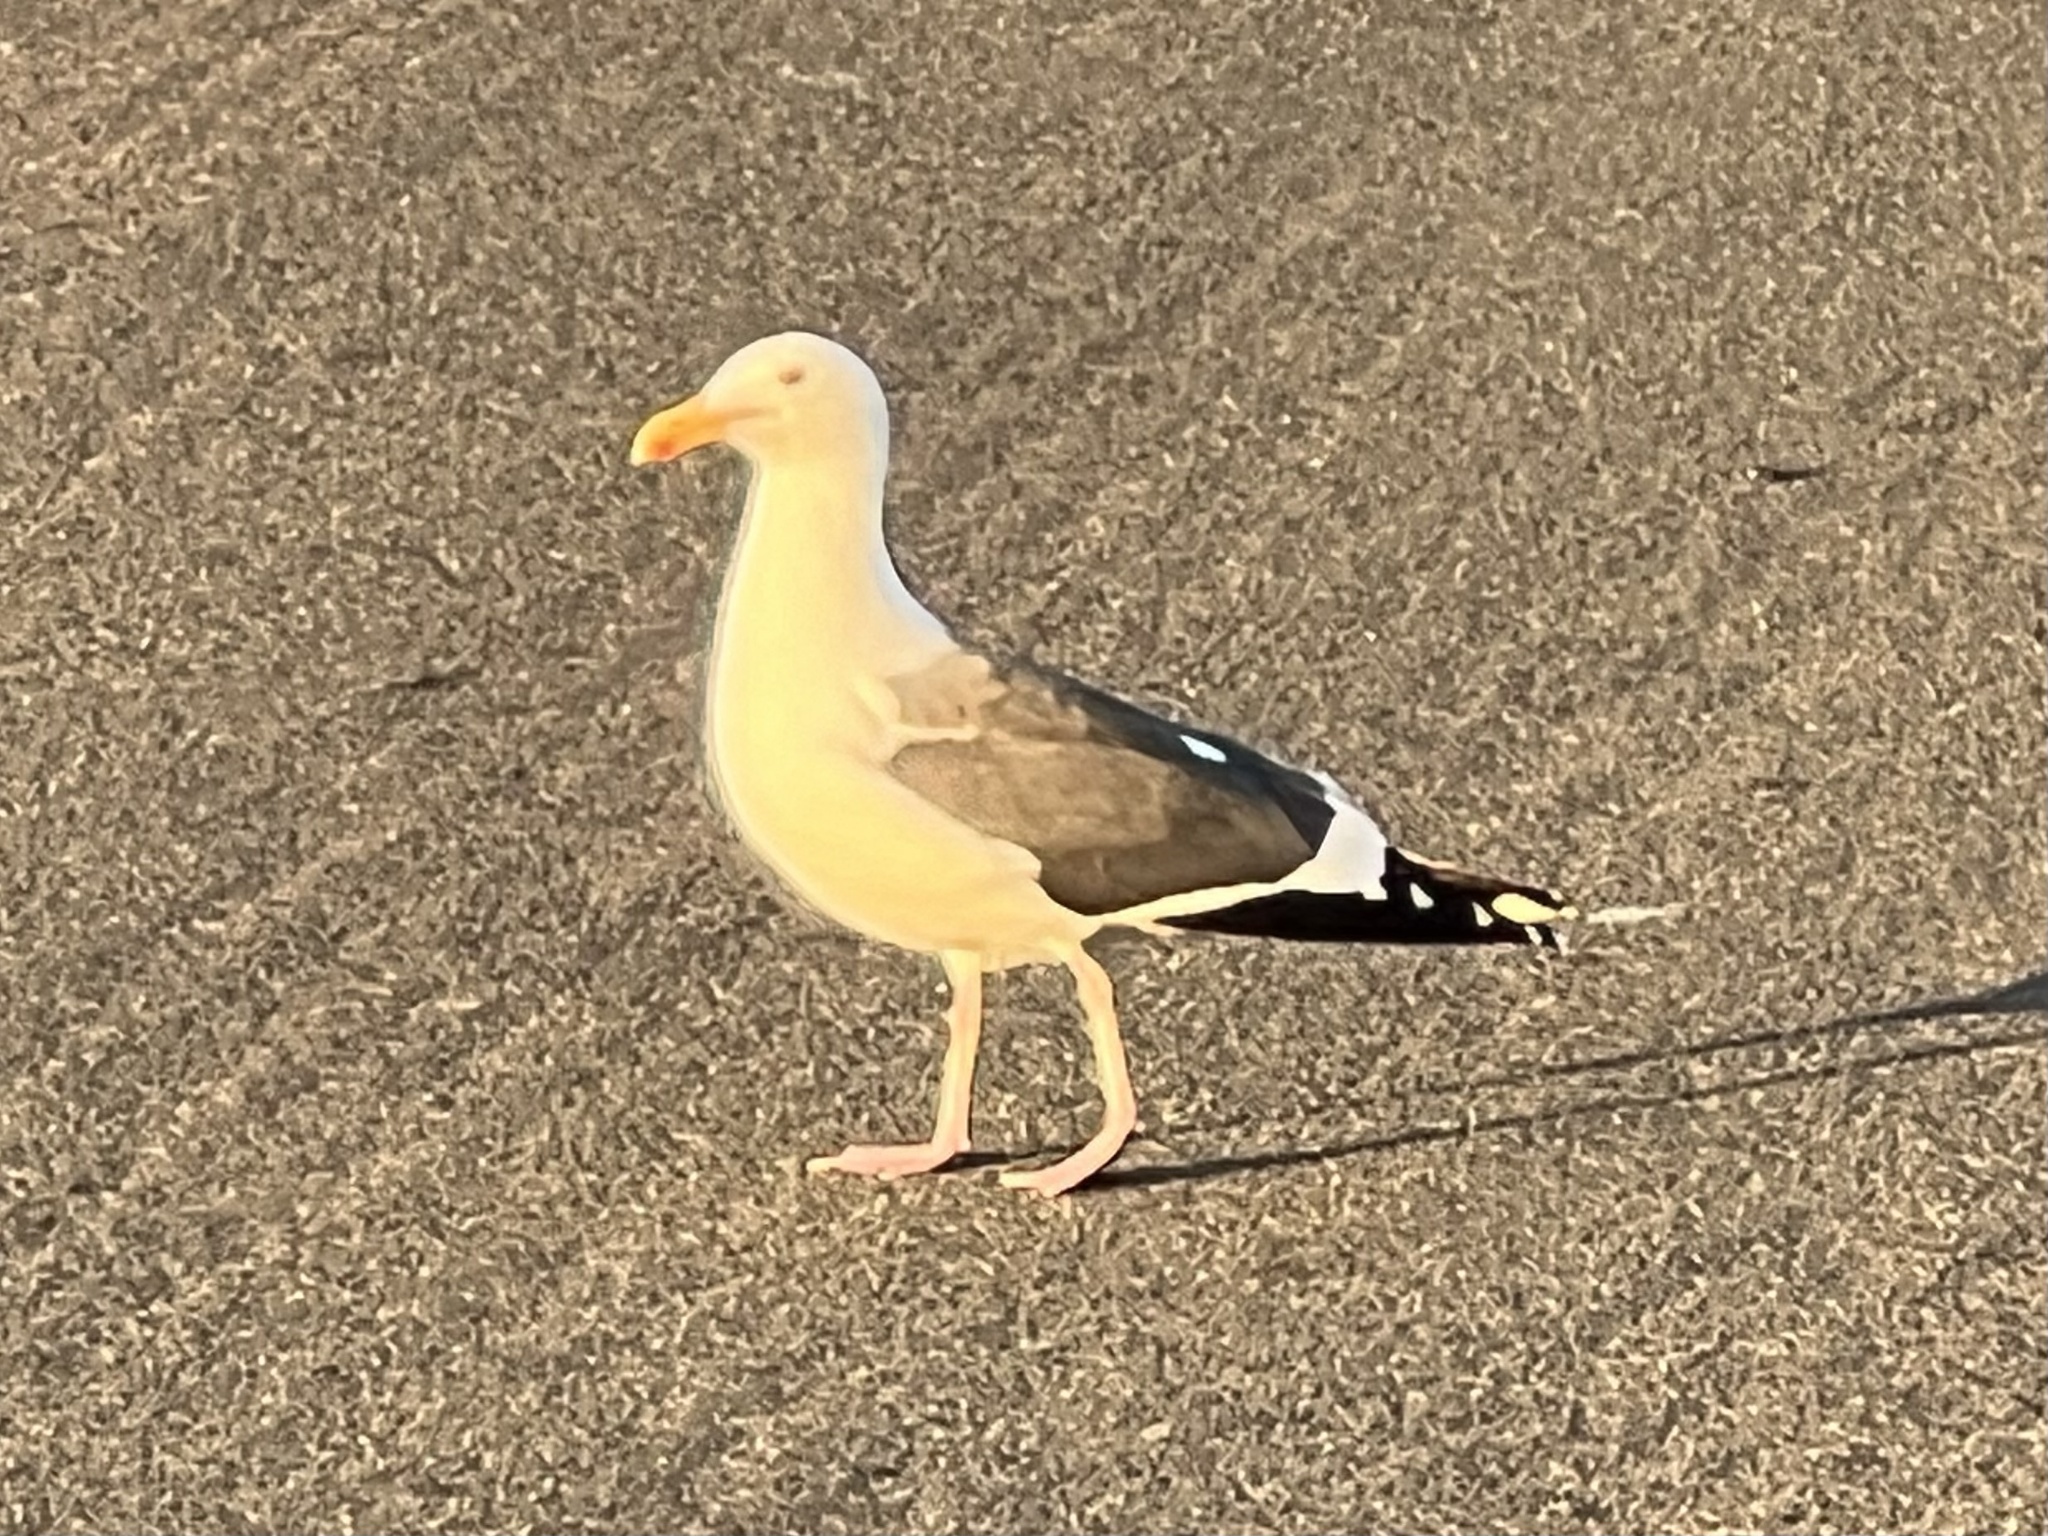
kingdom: Animalia
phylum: Chordata
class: Aves
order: Charadriiformes
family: Laridae
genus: Larus
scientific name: Larus occidentalis
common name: Western gull
